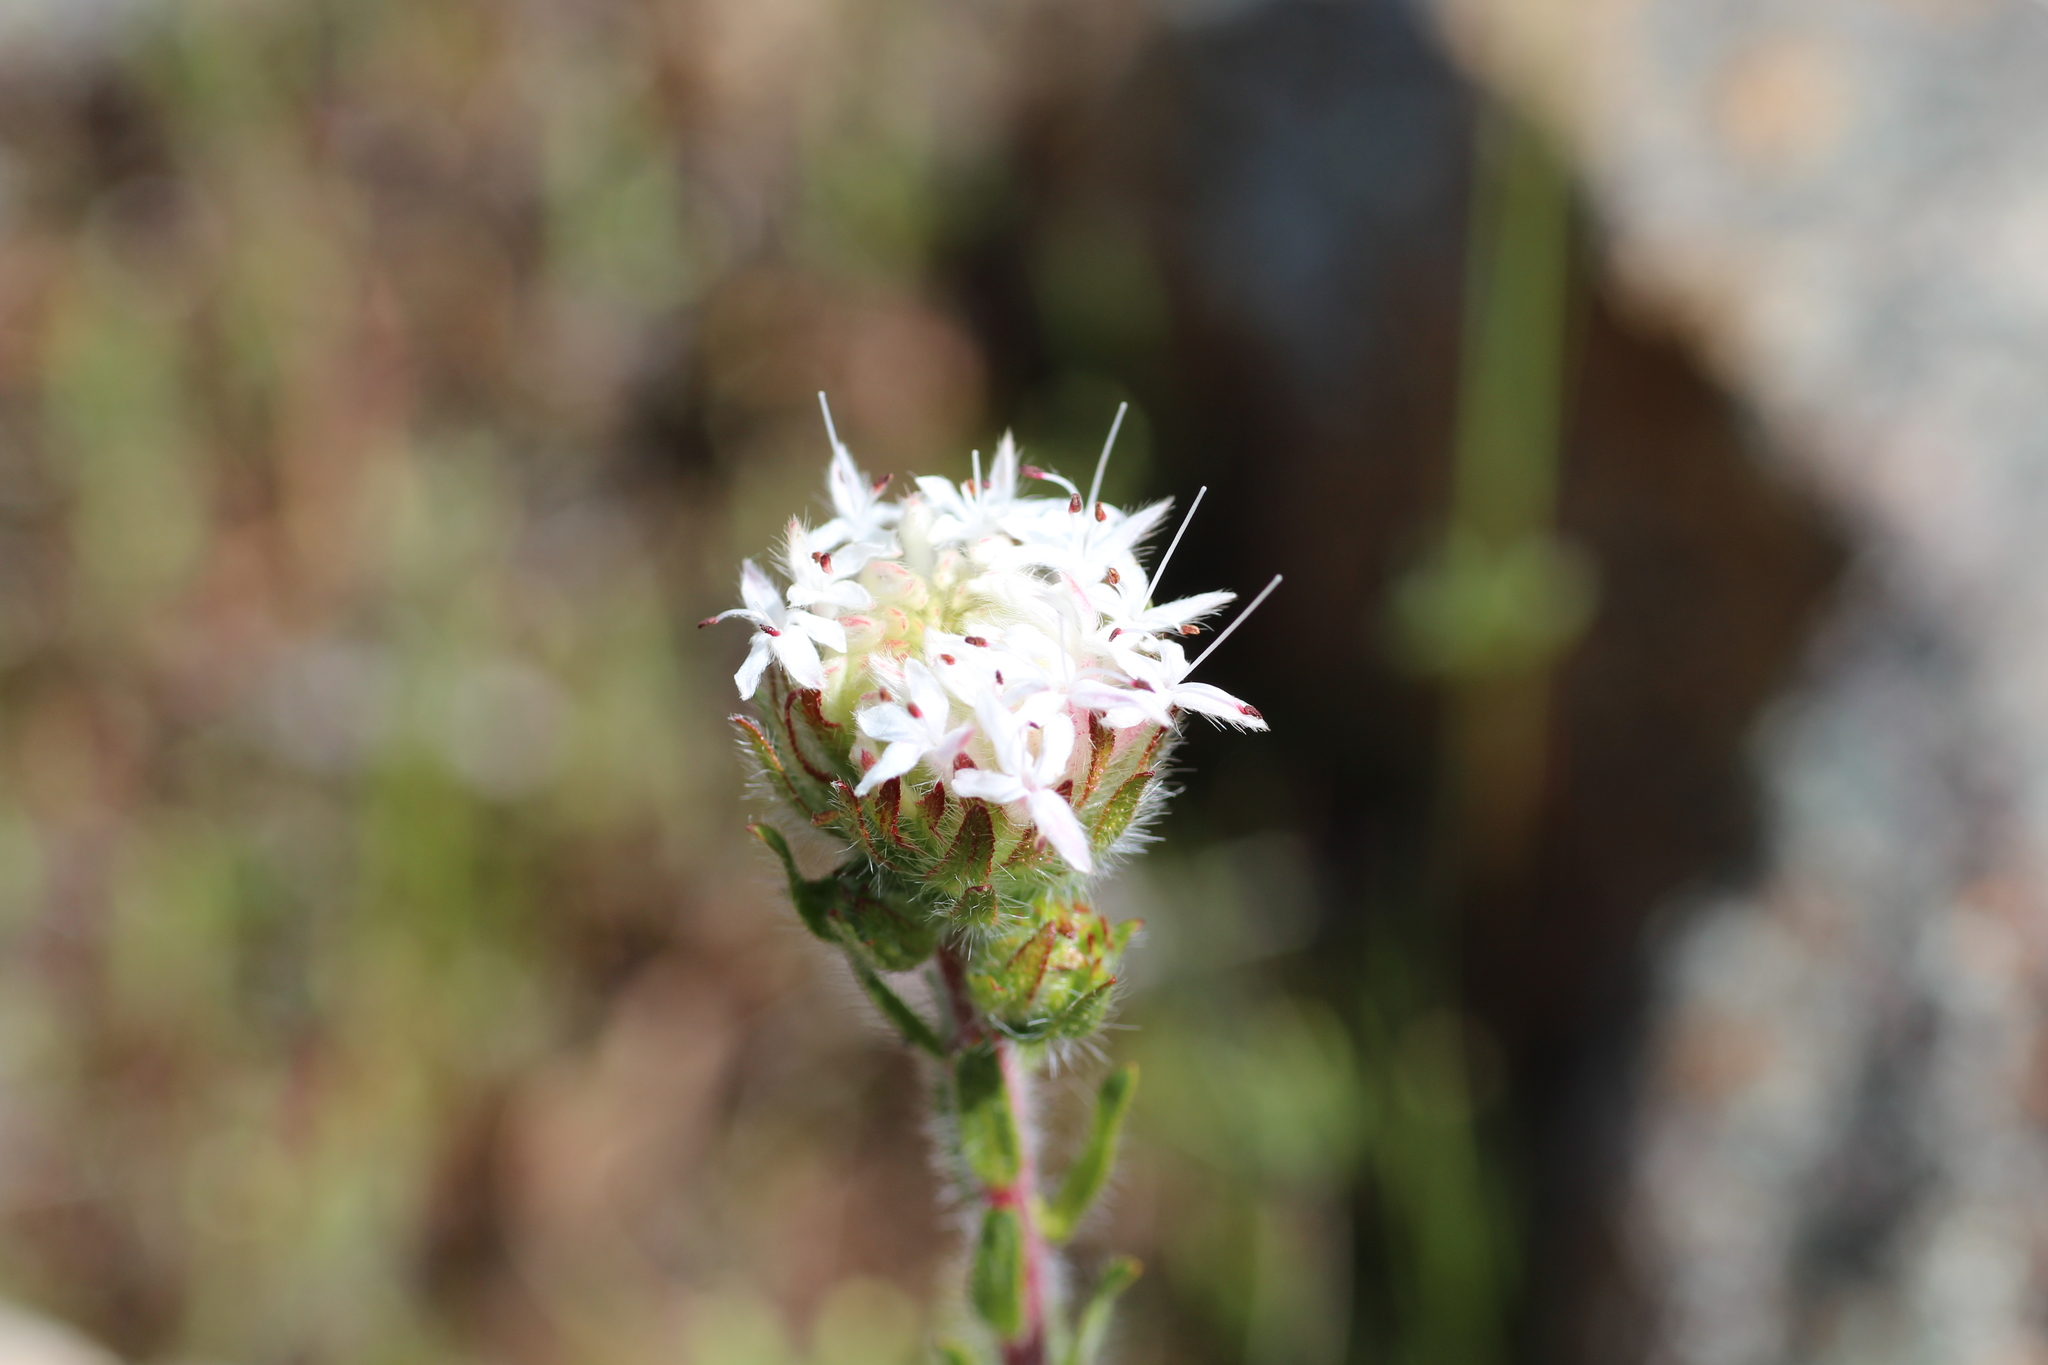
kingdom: Plantae
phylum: Tracheophyta
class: Magnoliopsida
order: Malvales
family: Thymelaeaceae
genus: Pimelea
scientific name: Pimelea imbricata
